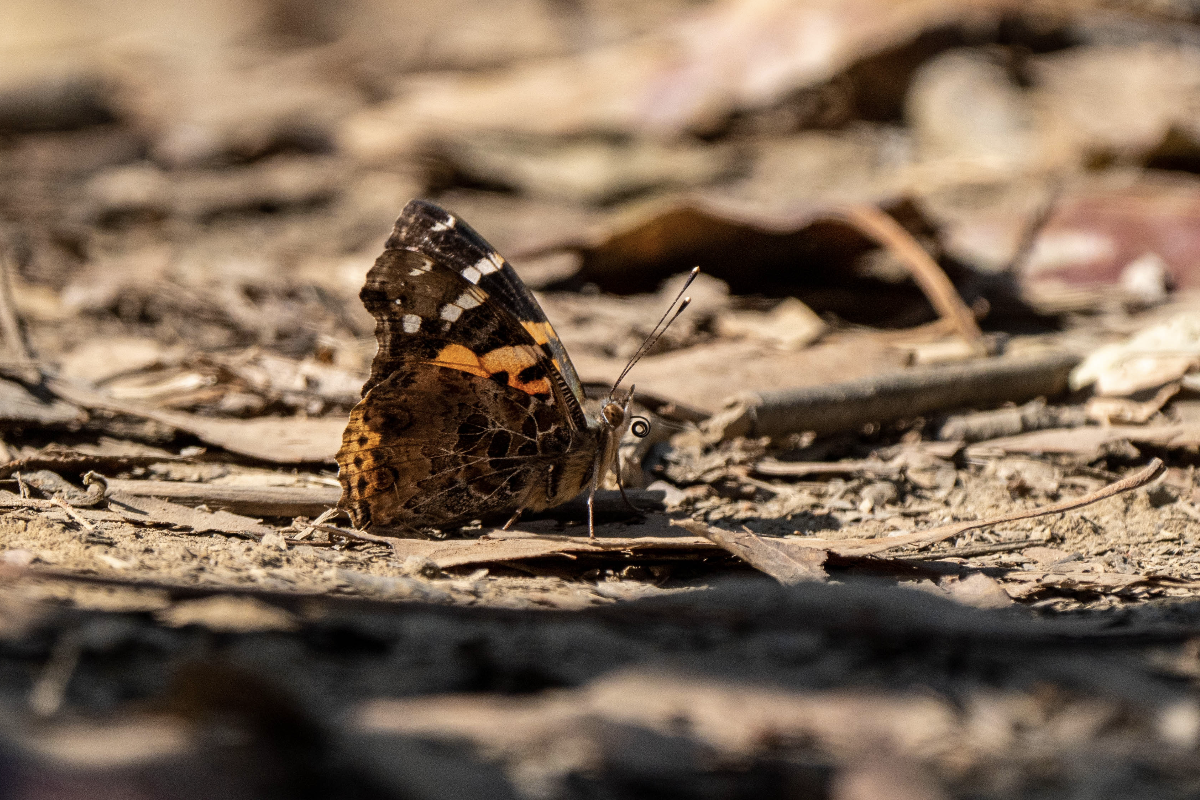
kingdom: Animalia
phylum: Arthropoda
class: Insecta
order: Lepidoptera
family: Nymphalidae
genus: Vanessa
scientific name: Vanessa indica
